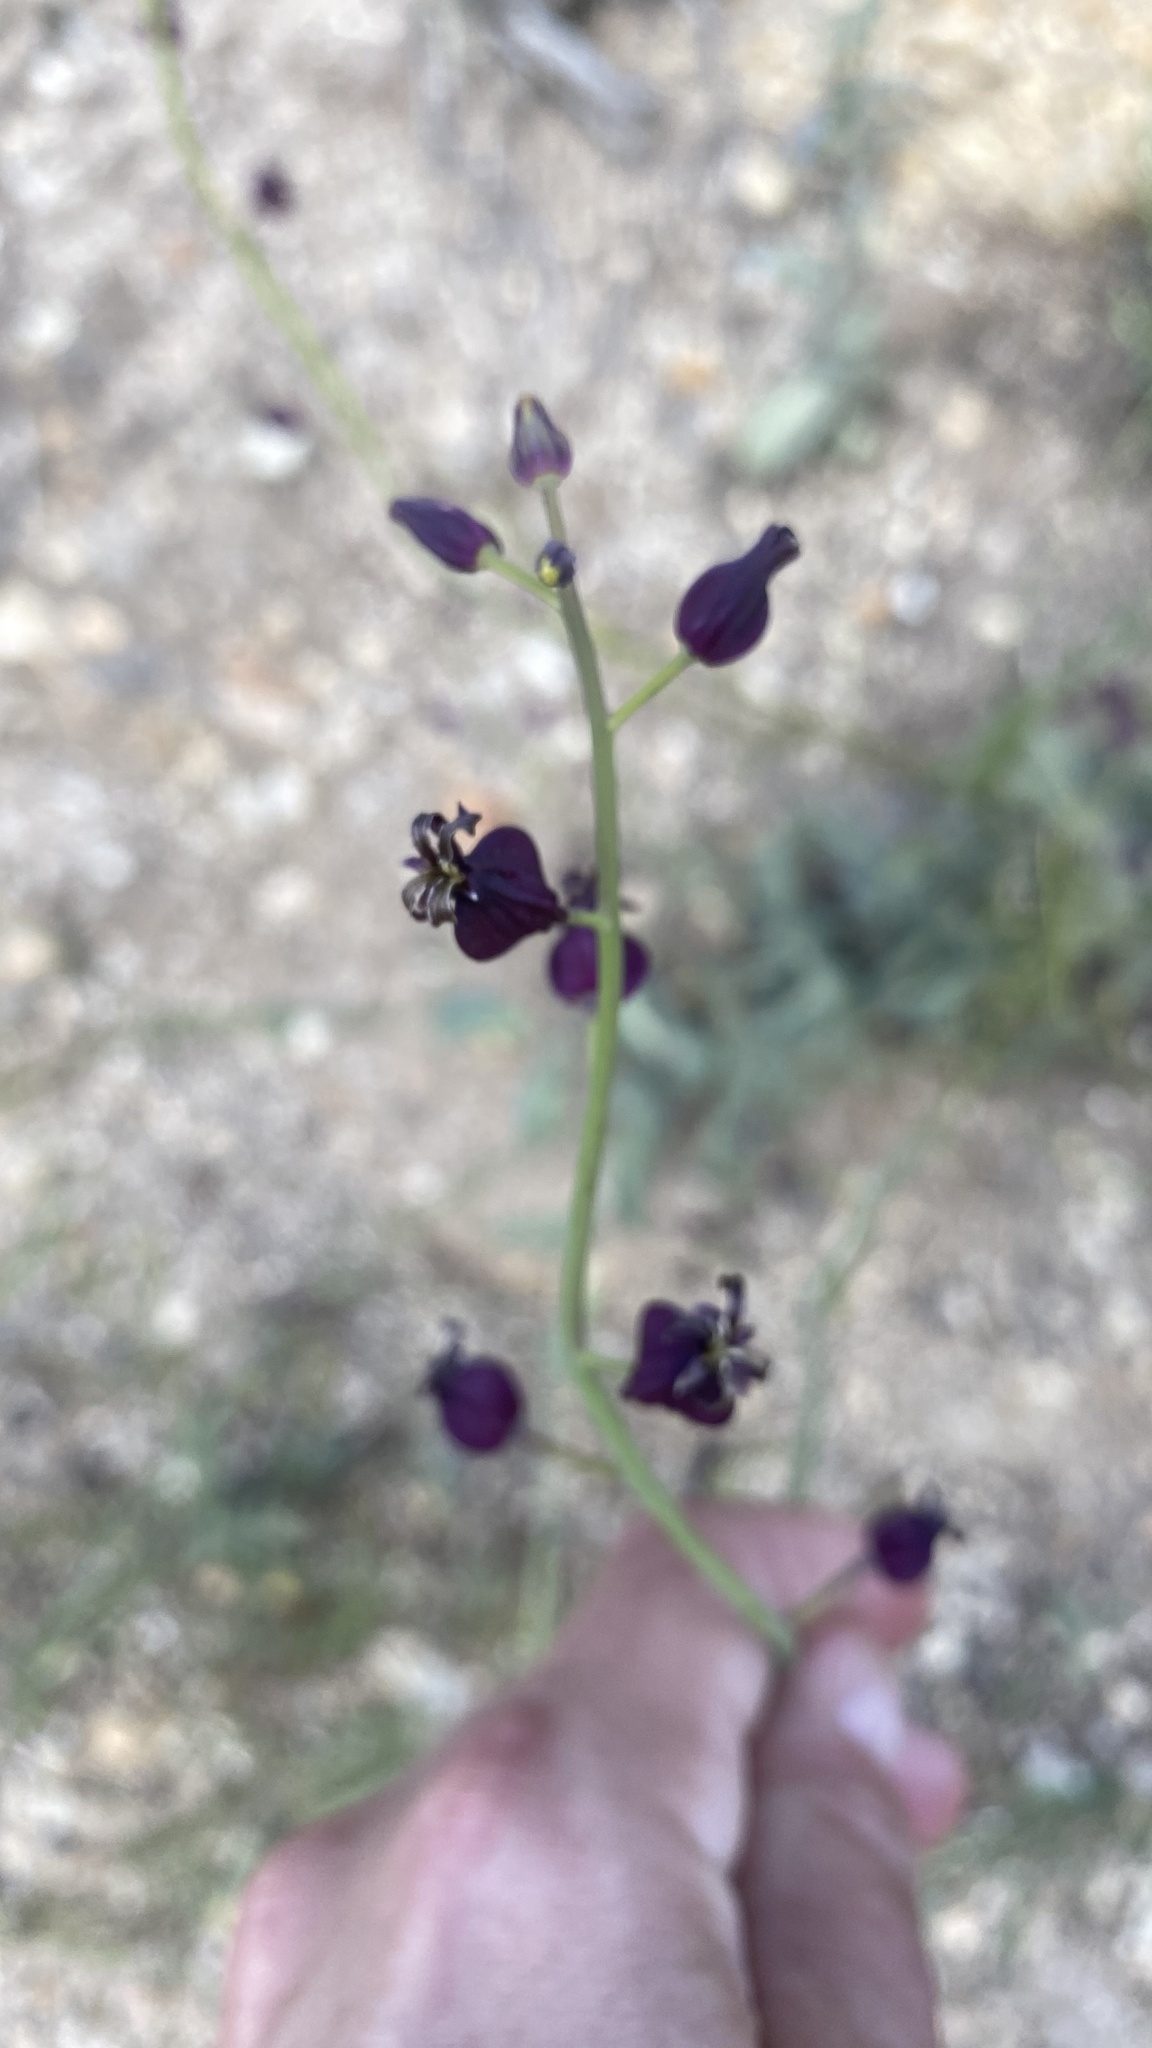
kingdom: Plantae
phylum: Tracheophyta
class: Magnoliopsida
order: Brassicales
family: Brassicaceae
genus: Streptanthus
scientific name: Streptanthus amplexicaulis
